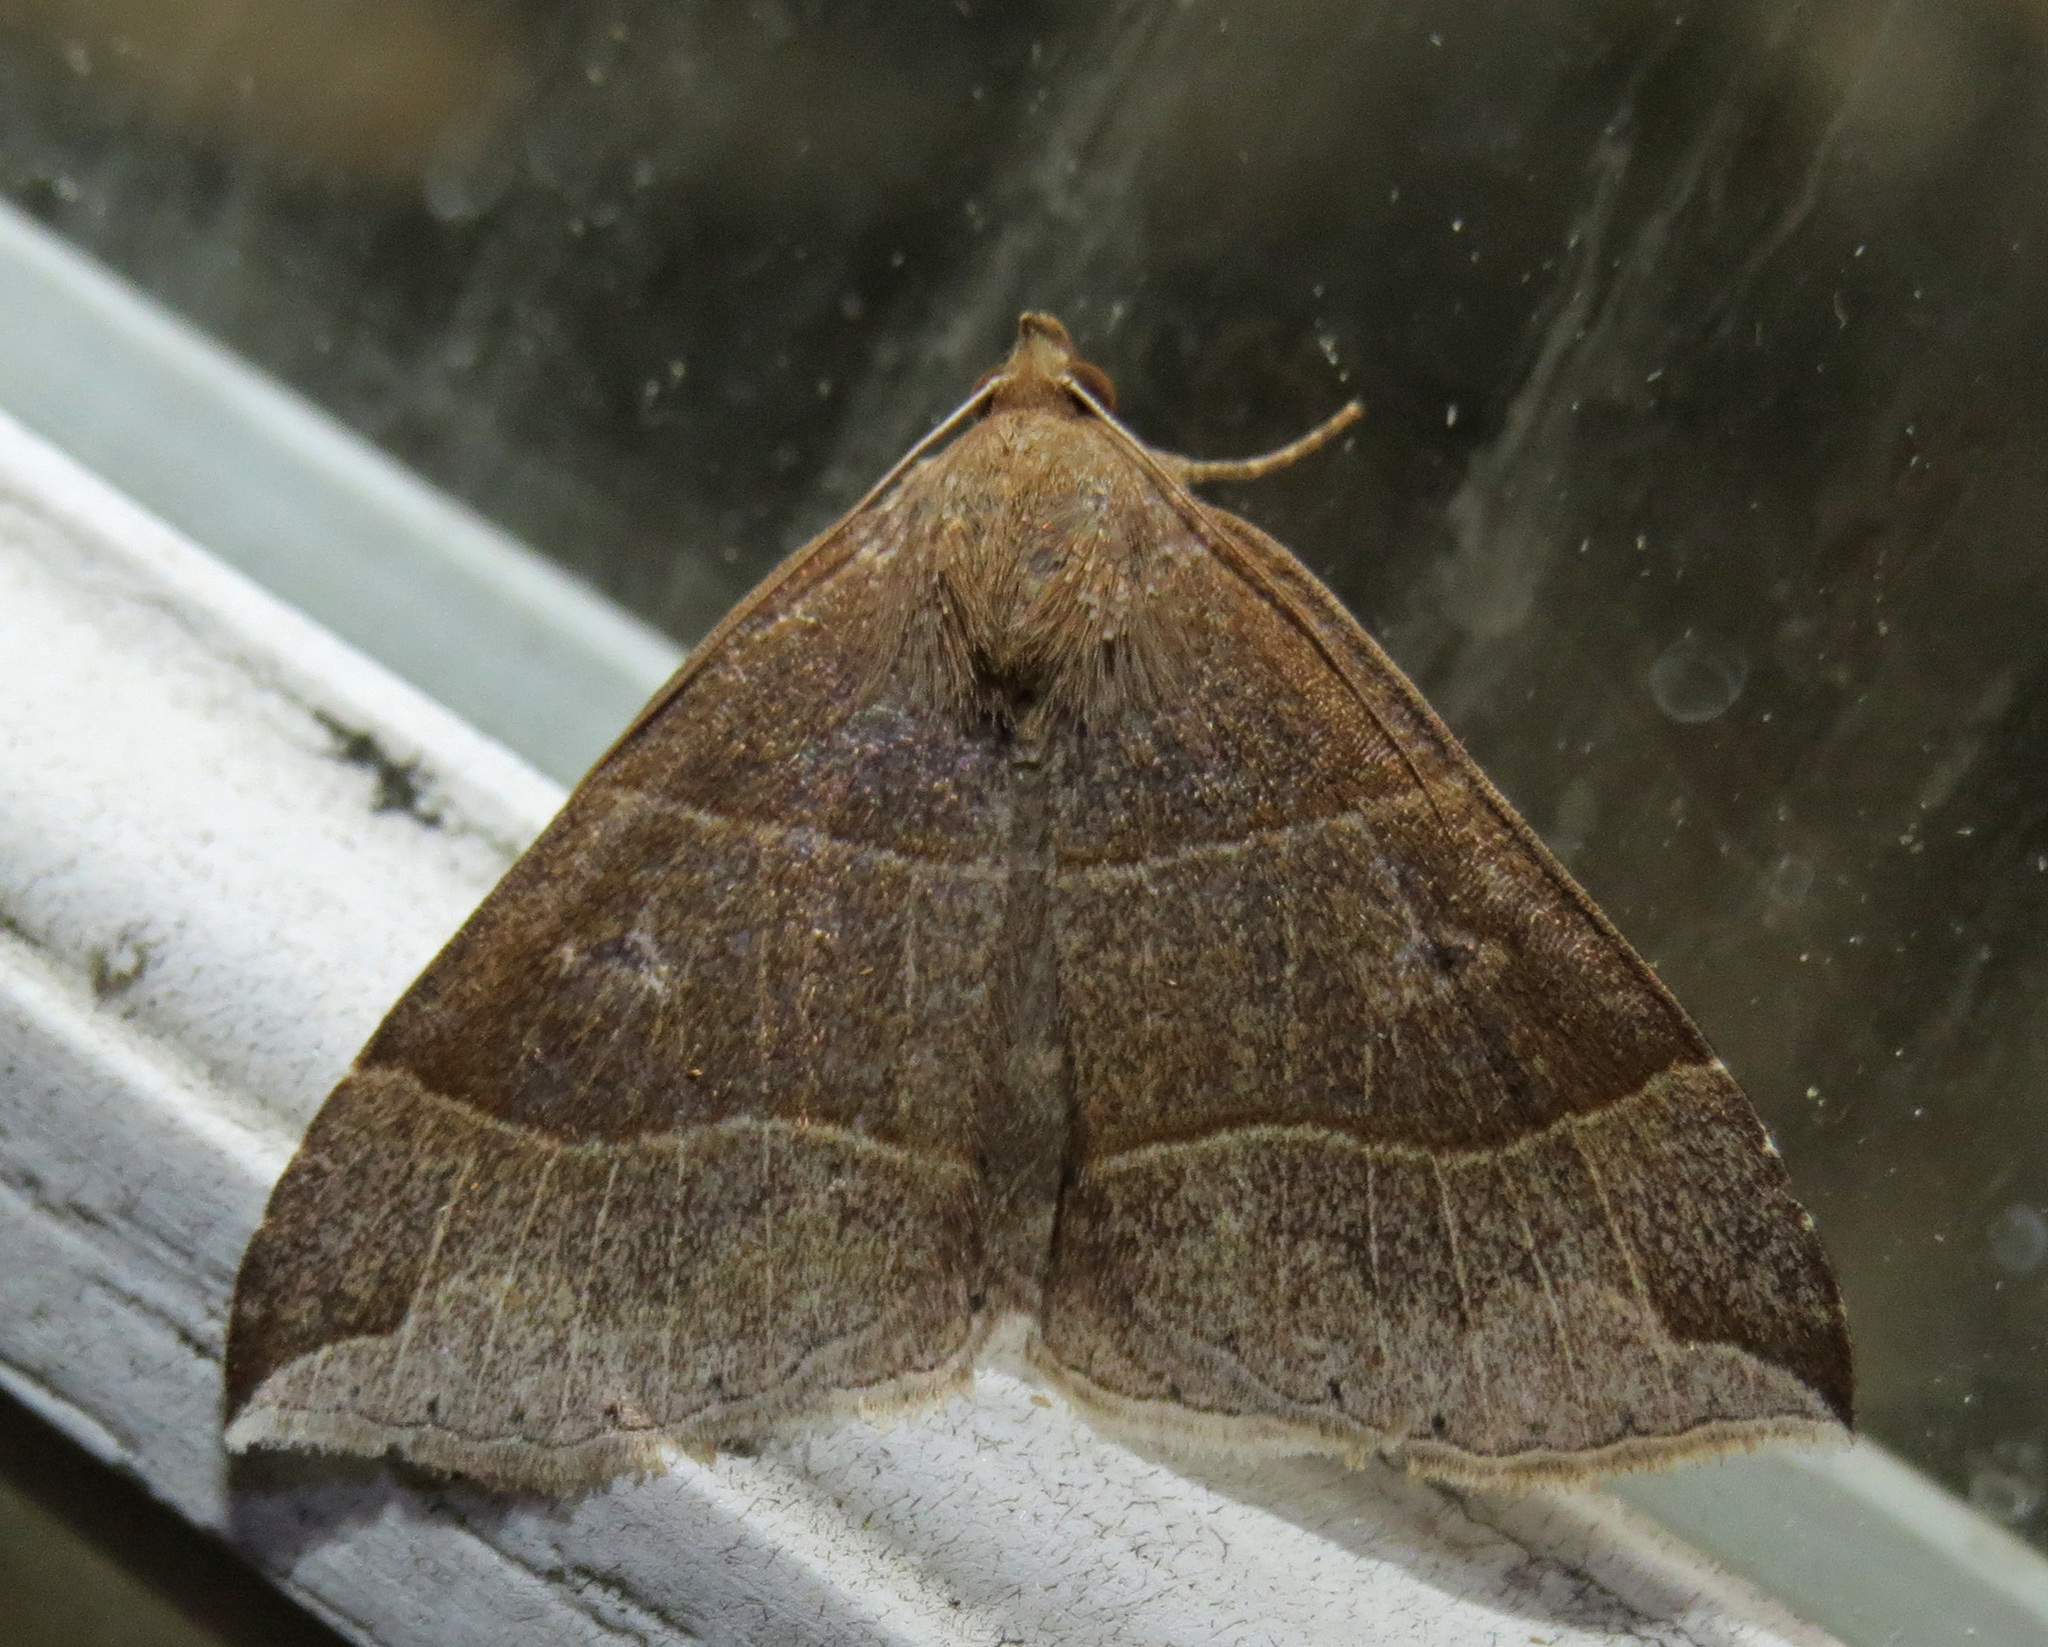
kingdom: Animalia
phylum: Arthropoda
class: Insecta
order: Lepidoptera
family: Erebidae
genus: Parallelia
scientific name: Parallelia bistriaris
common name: Maple looper moth
